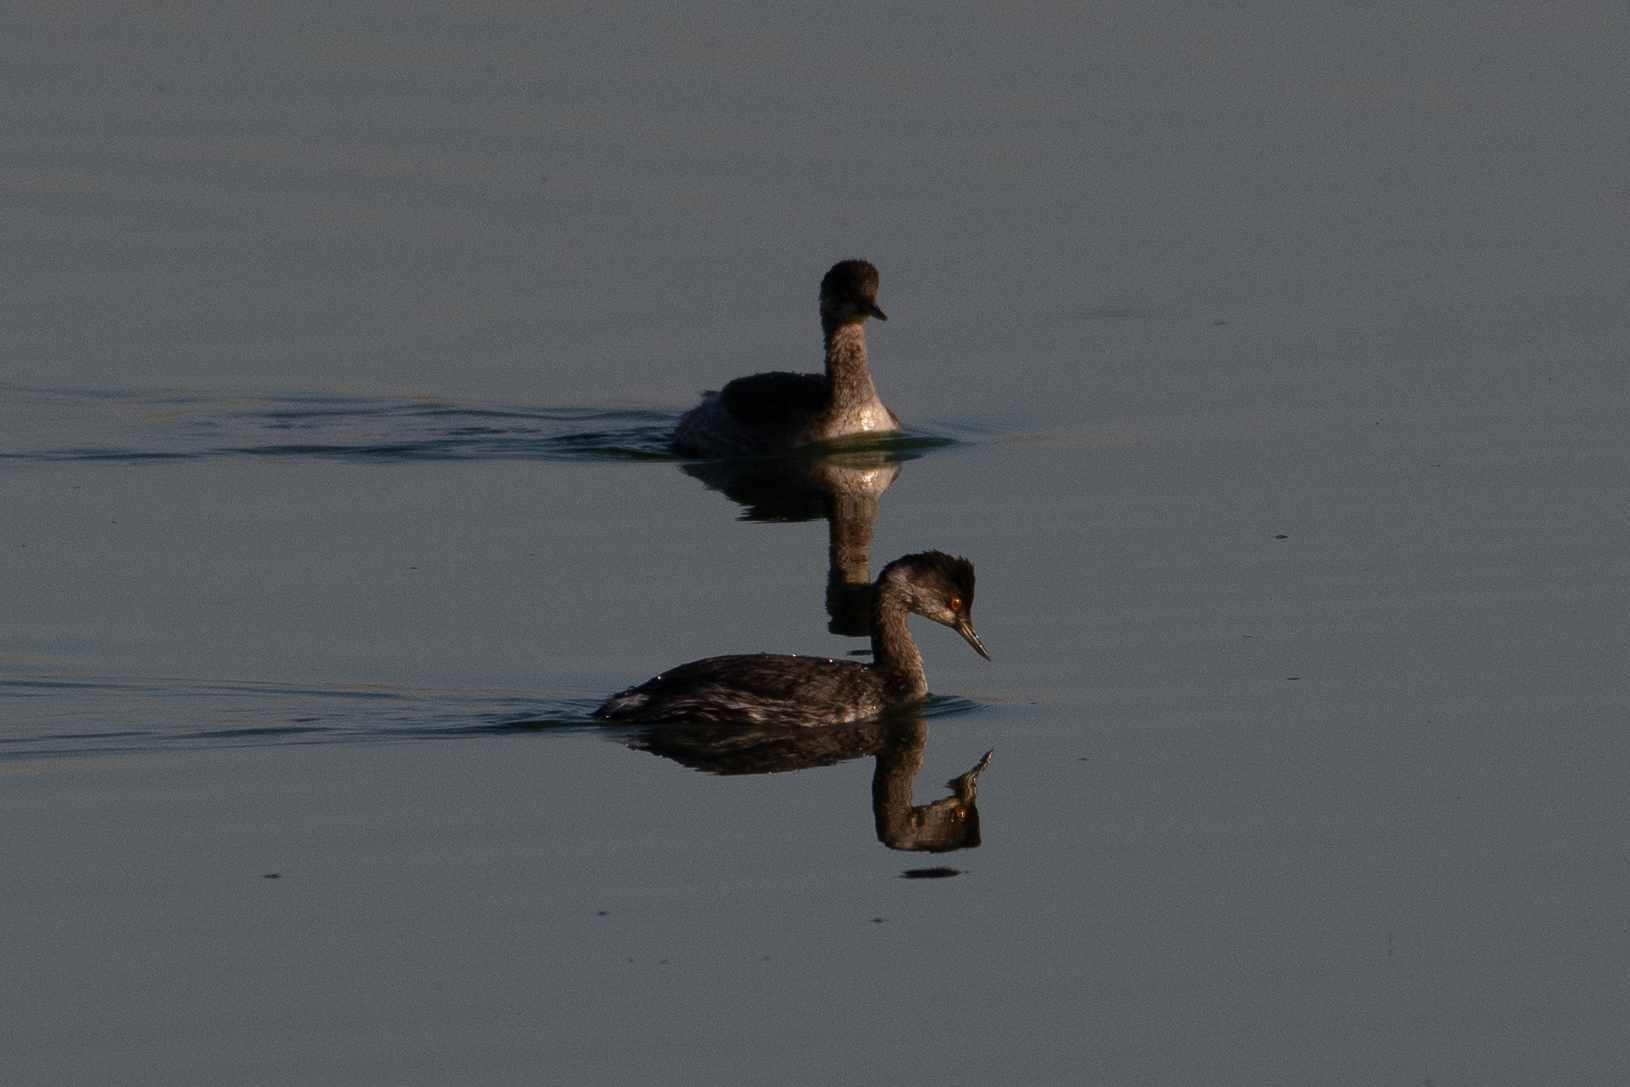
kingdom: Animalia
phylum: Chordata
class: Aves
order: Podicipediformes
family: Podicipedidae
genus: Podiceps
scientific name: Podiceps nigricollis
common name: Black-necked grebe
